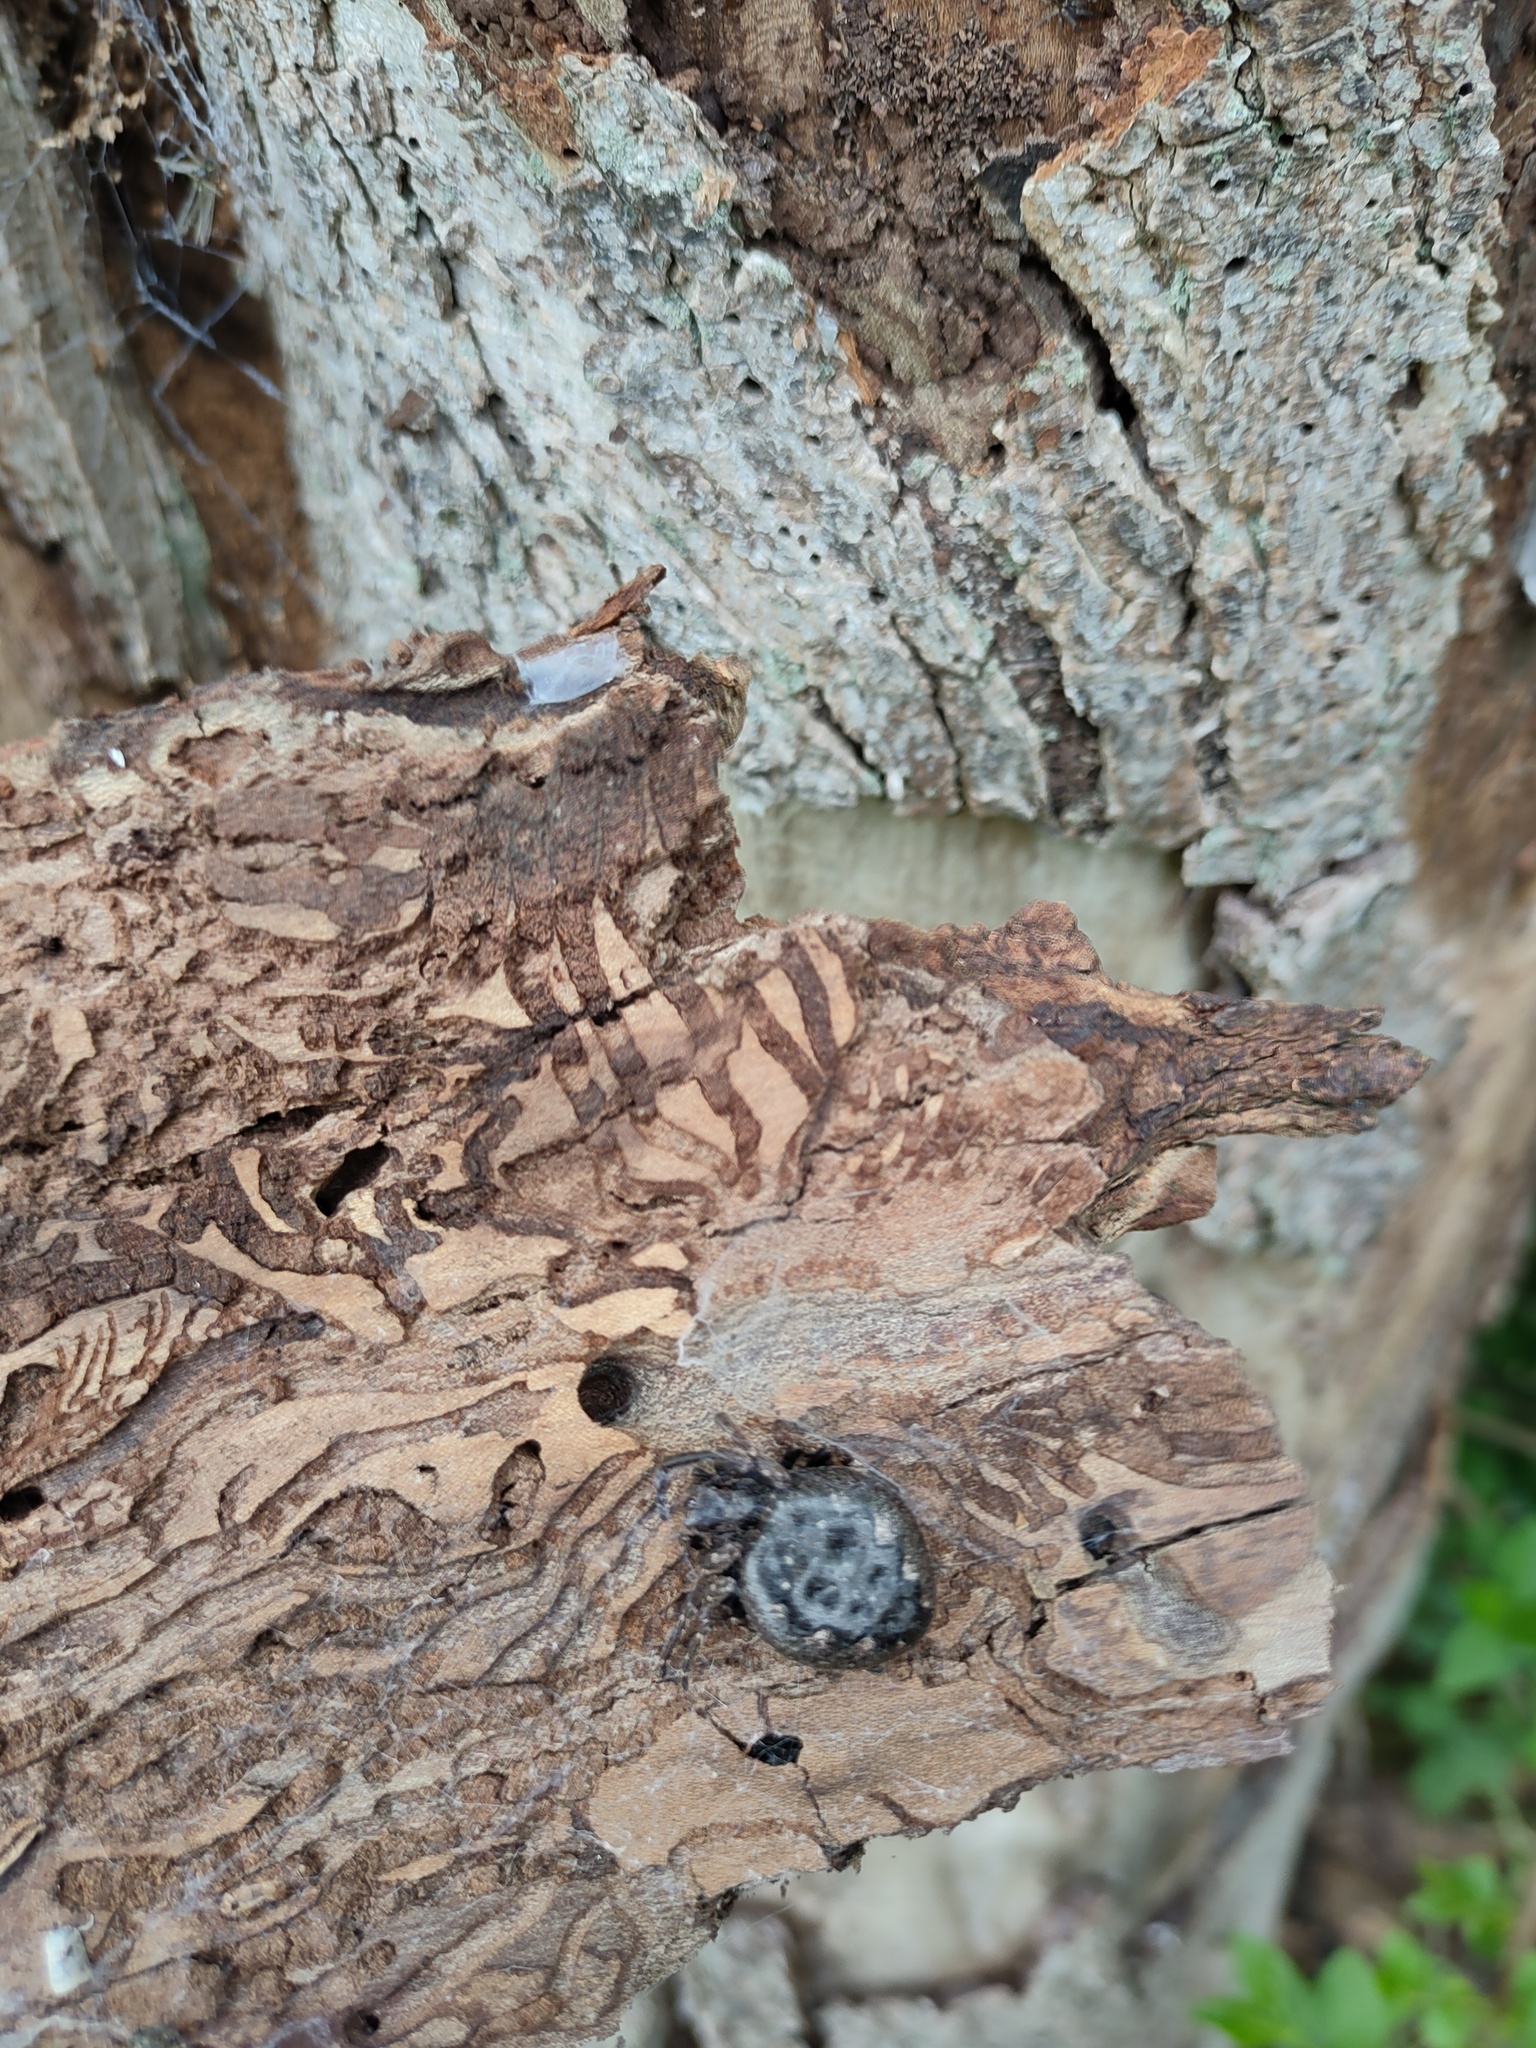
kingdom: Animalia
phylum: Arthropoda
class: Arachnida
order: Araneae
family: Araneidae
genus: Nuctenea
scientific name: Nuctenea umbratica
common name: Toad spider
